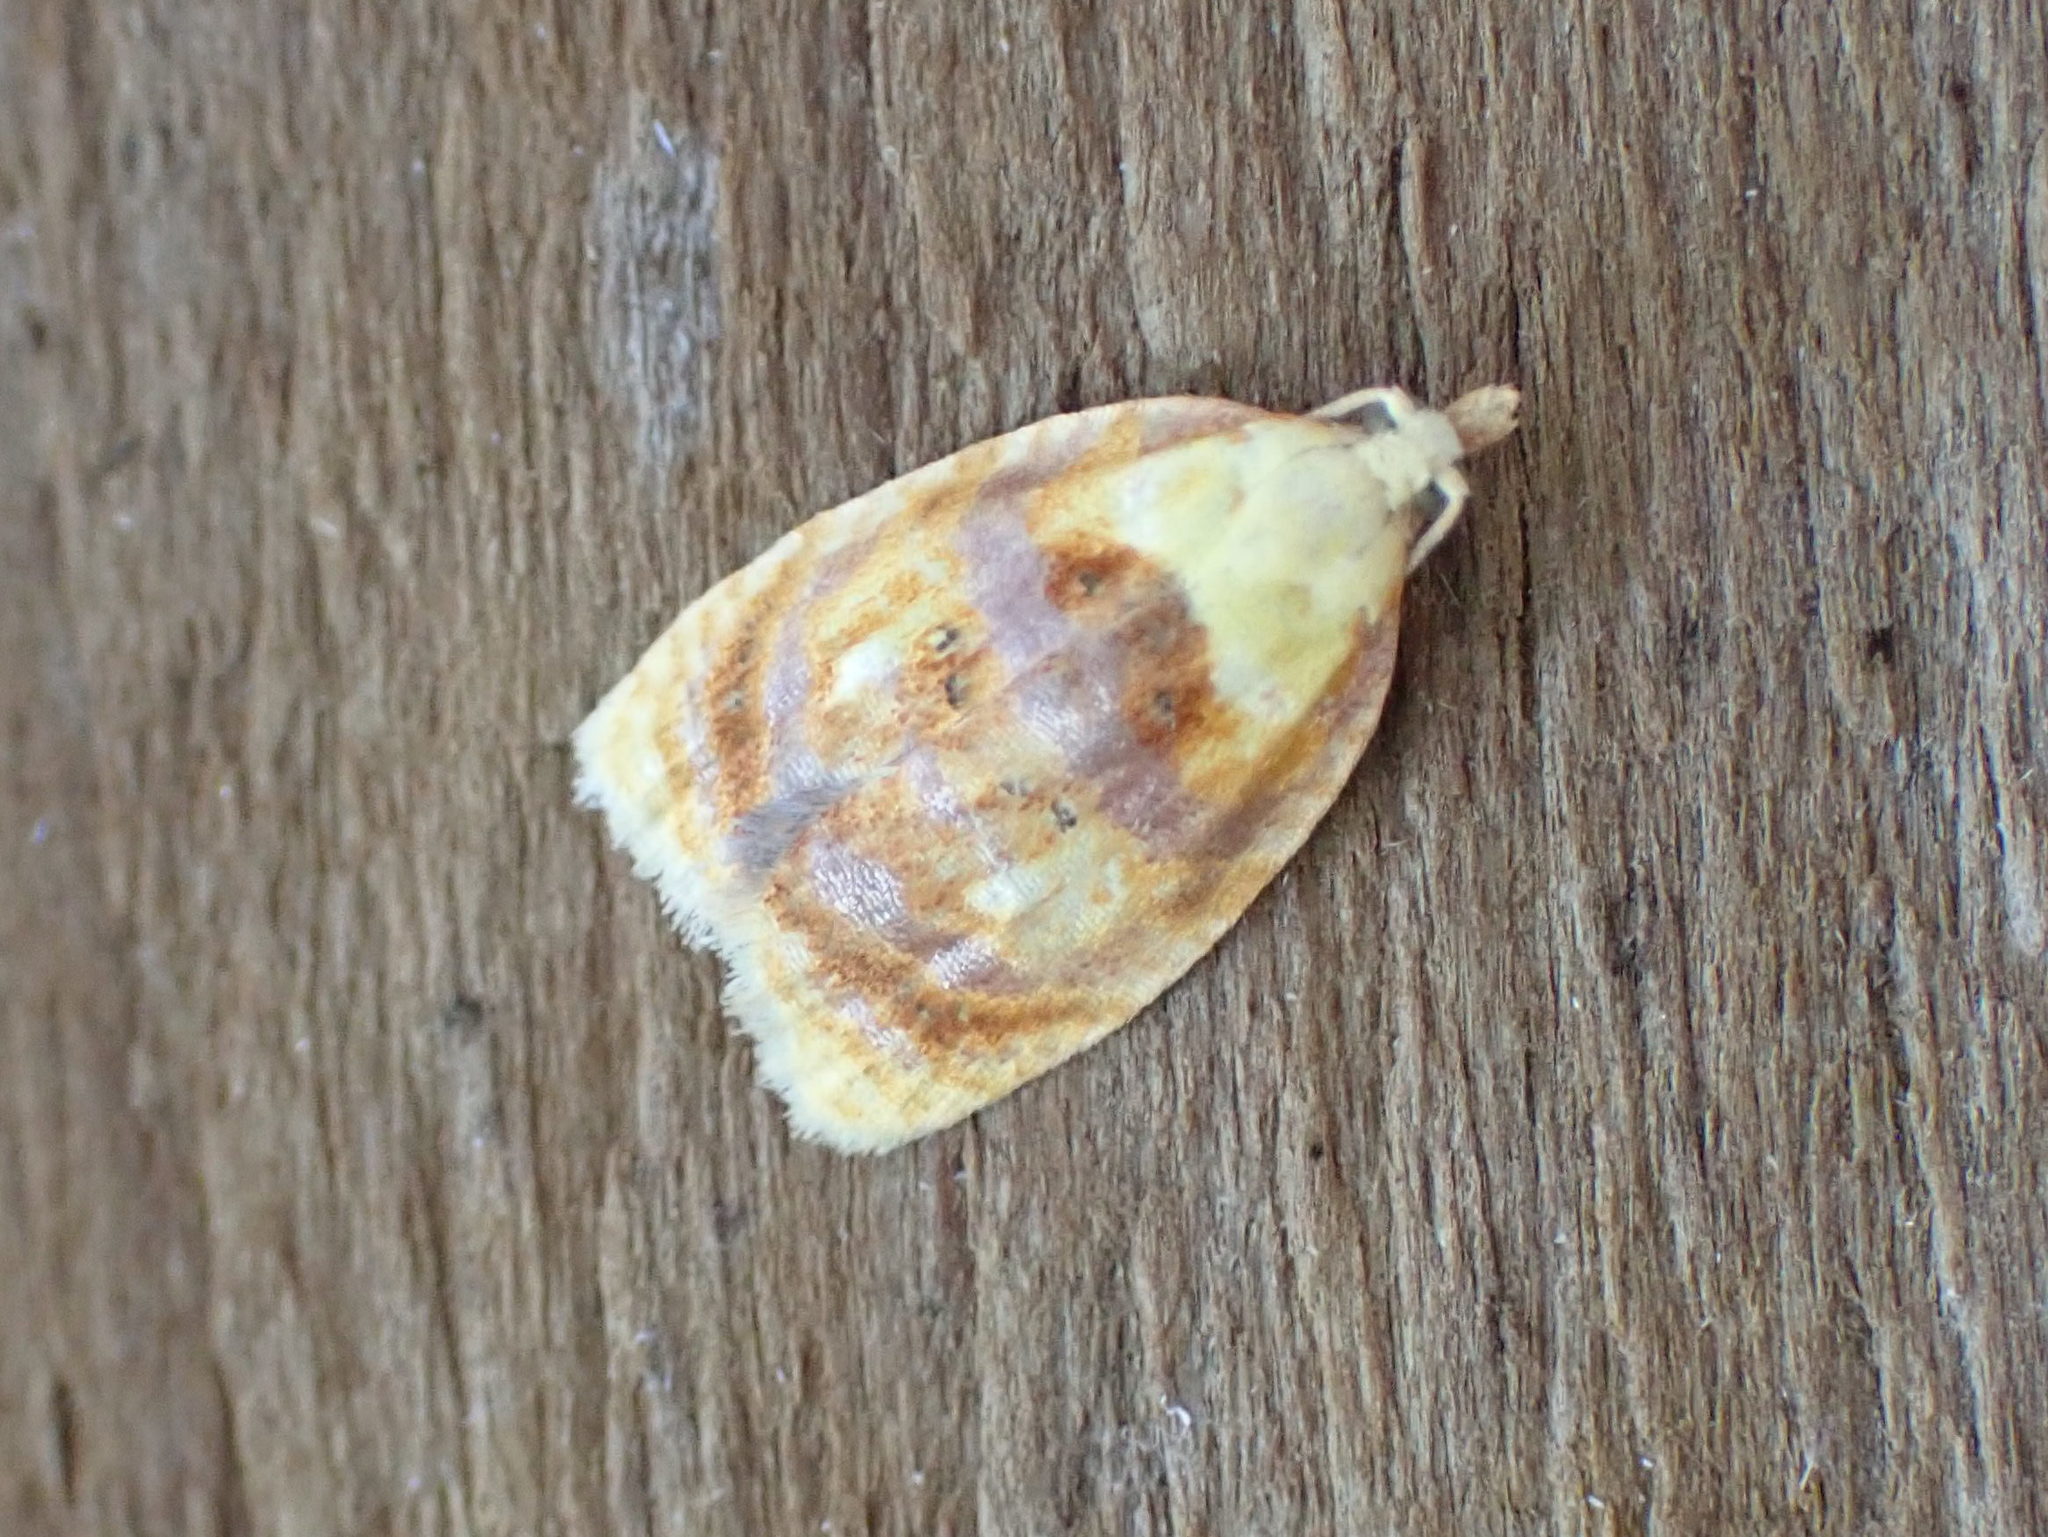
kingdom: Animalia
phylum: Arthropoda
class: Insecta
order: Lepidoptera
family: Tortricidae
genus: Acleris
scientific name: Acleris curvalana
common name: Blueberry leaftier moth
